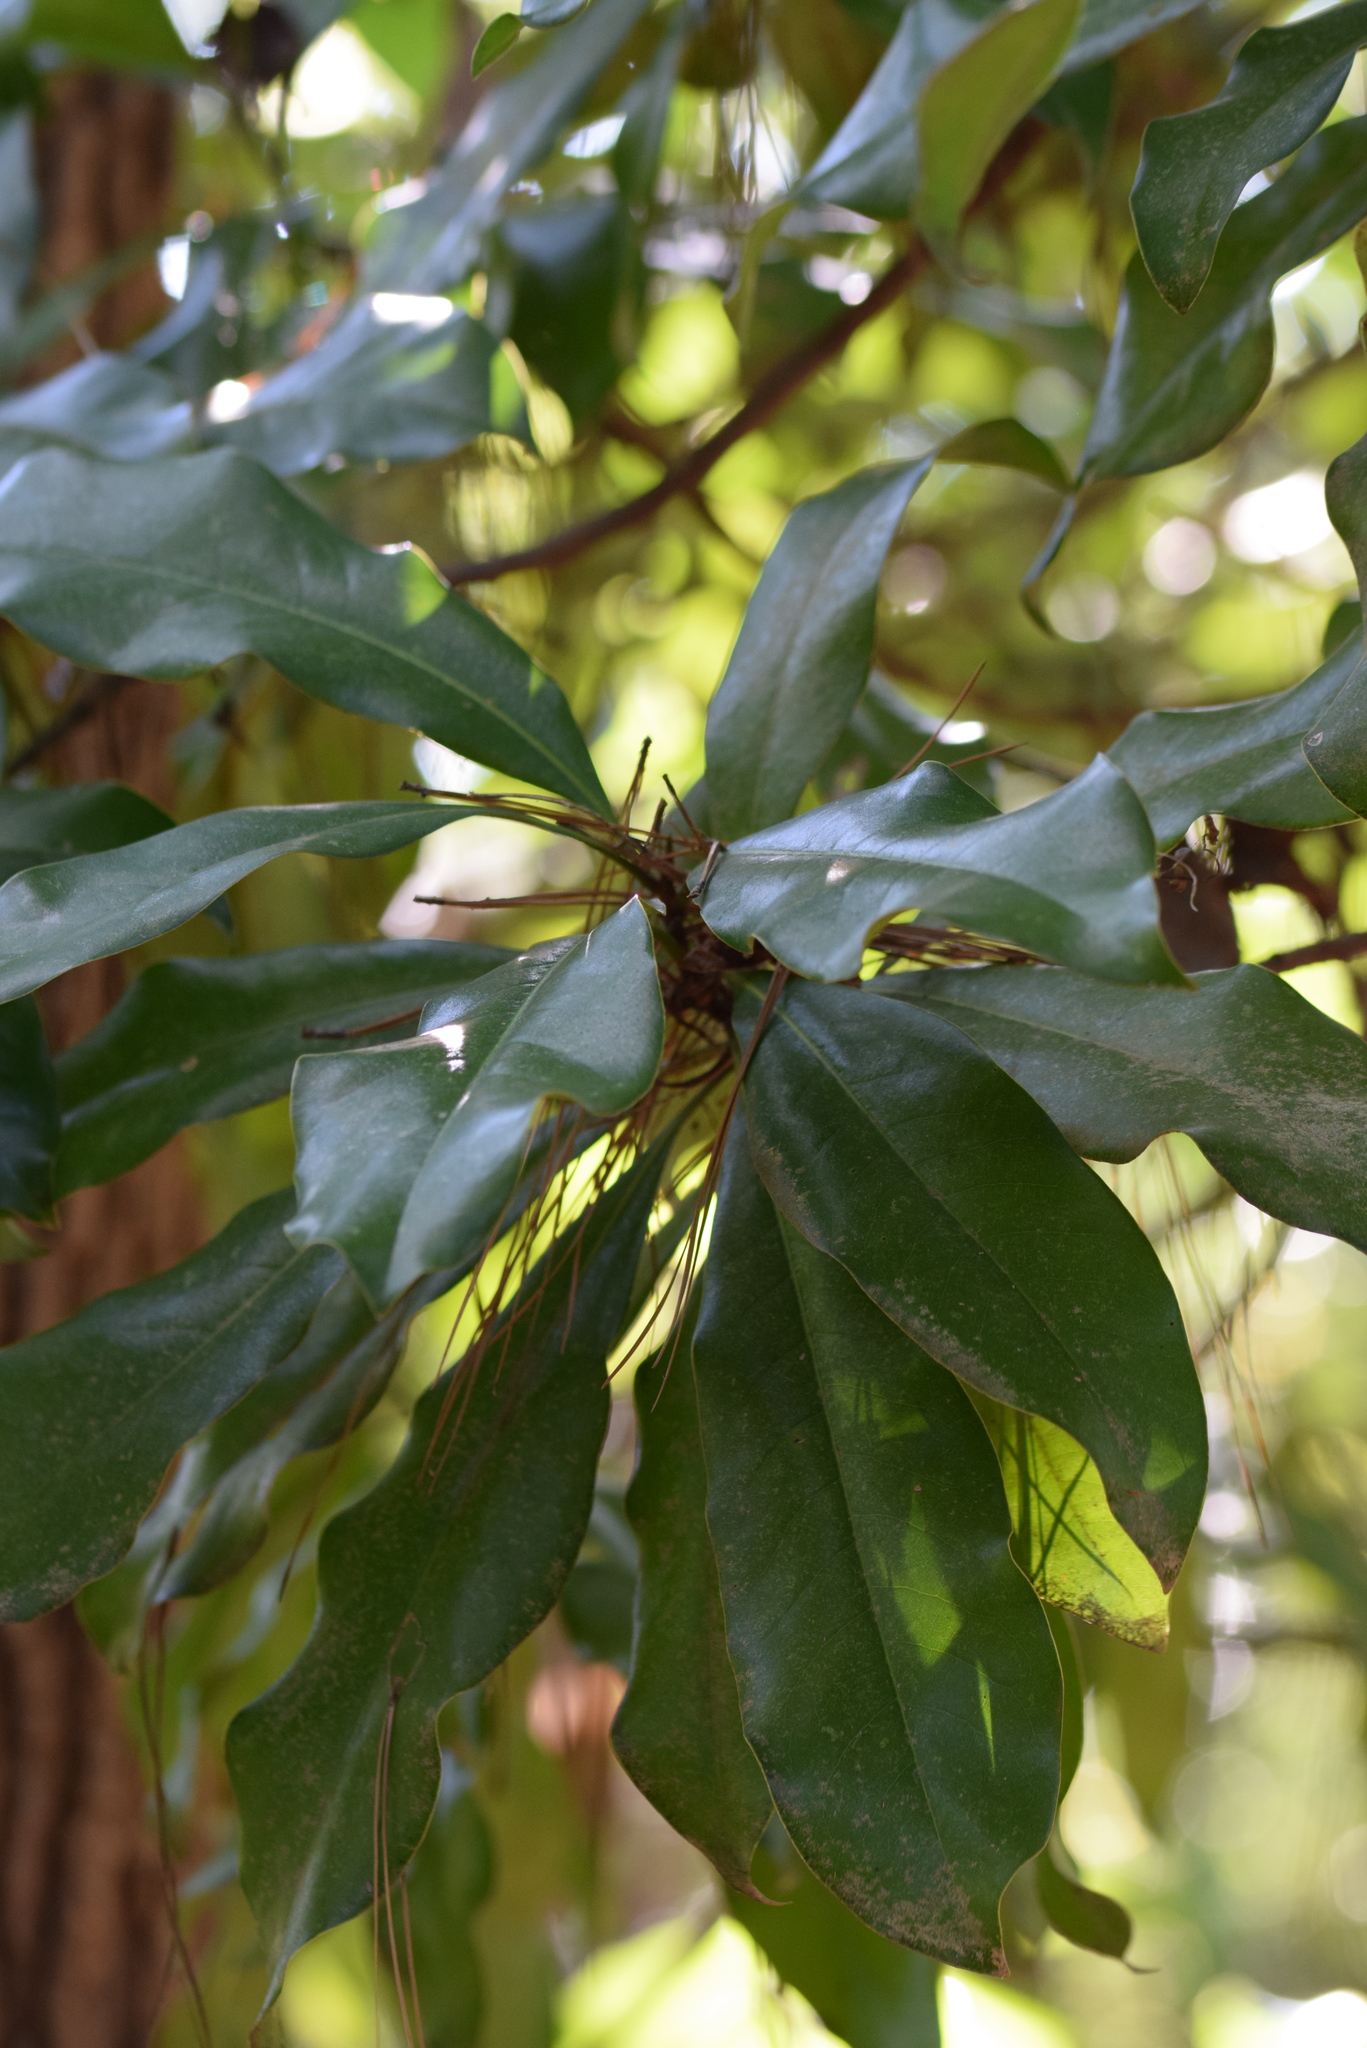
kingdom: Plantae
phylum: Tracheophyta
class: Magnoliopsida
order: Magnoliales
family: Magnoliaceae
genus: Magnolia
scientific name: Magnolia grandiflora
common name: Southern magnolia
